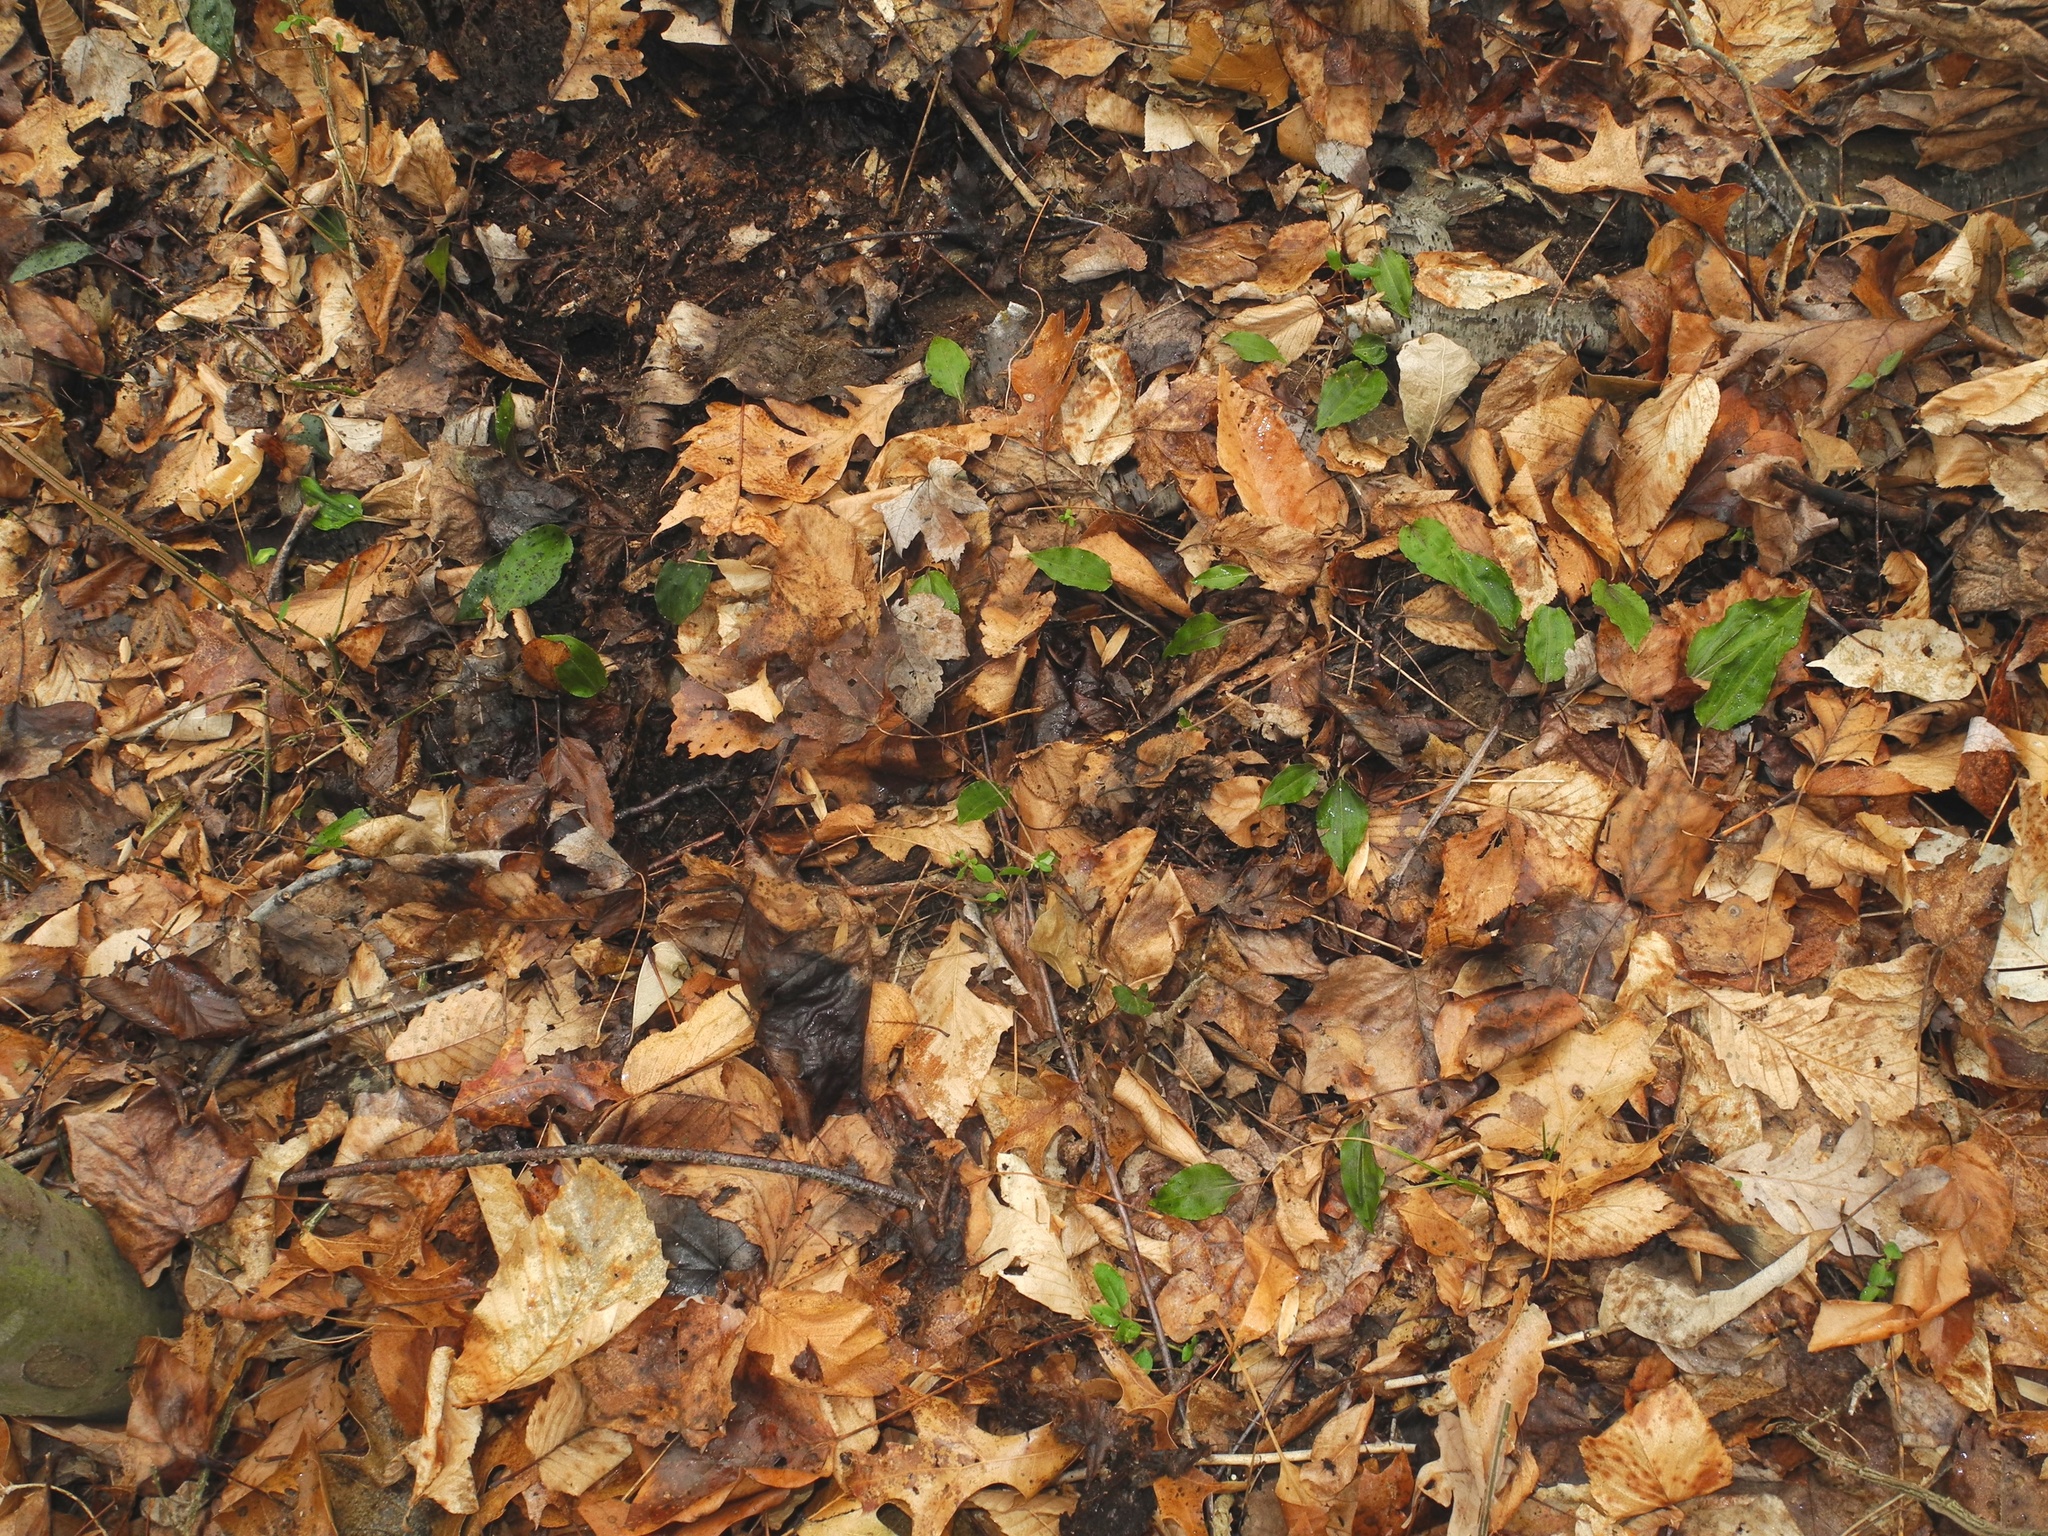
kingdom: Plantae
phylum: Tracheophyta
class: Liliopsida
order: Asparagales
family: Orchidaceae
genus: Tipularia
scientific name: Tipularia discolor
